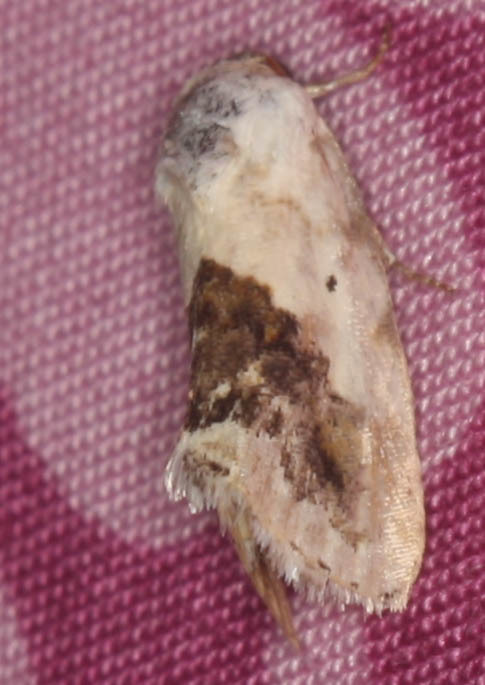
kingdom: Animalia
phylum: Arthropoda
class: Insecta
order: Lepidoptera
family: Noctuidae
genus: Acontia
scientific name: Acontia erastrioides
